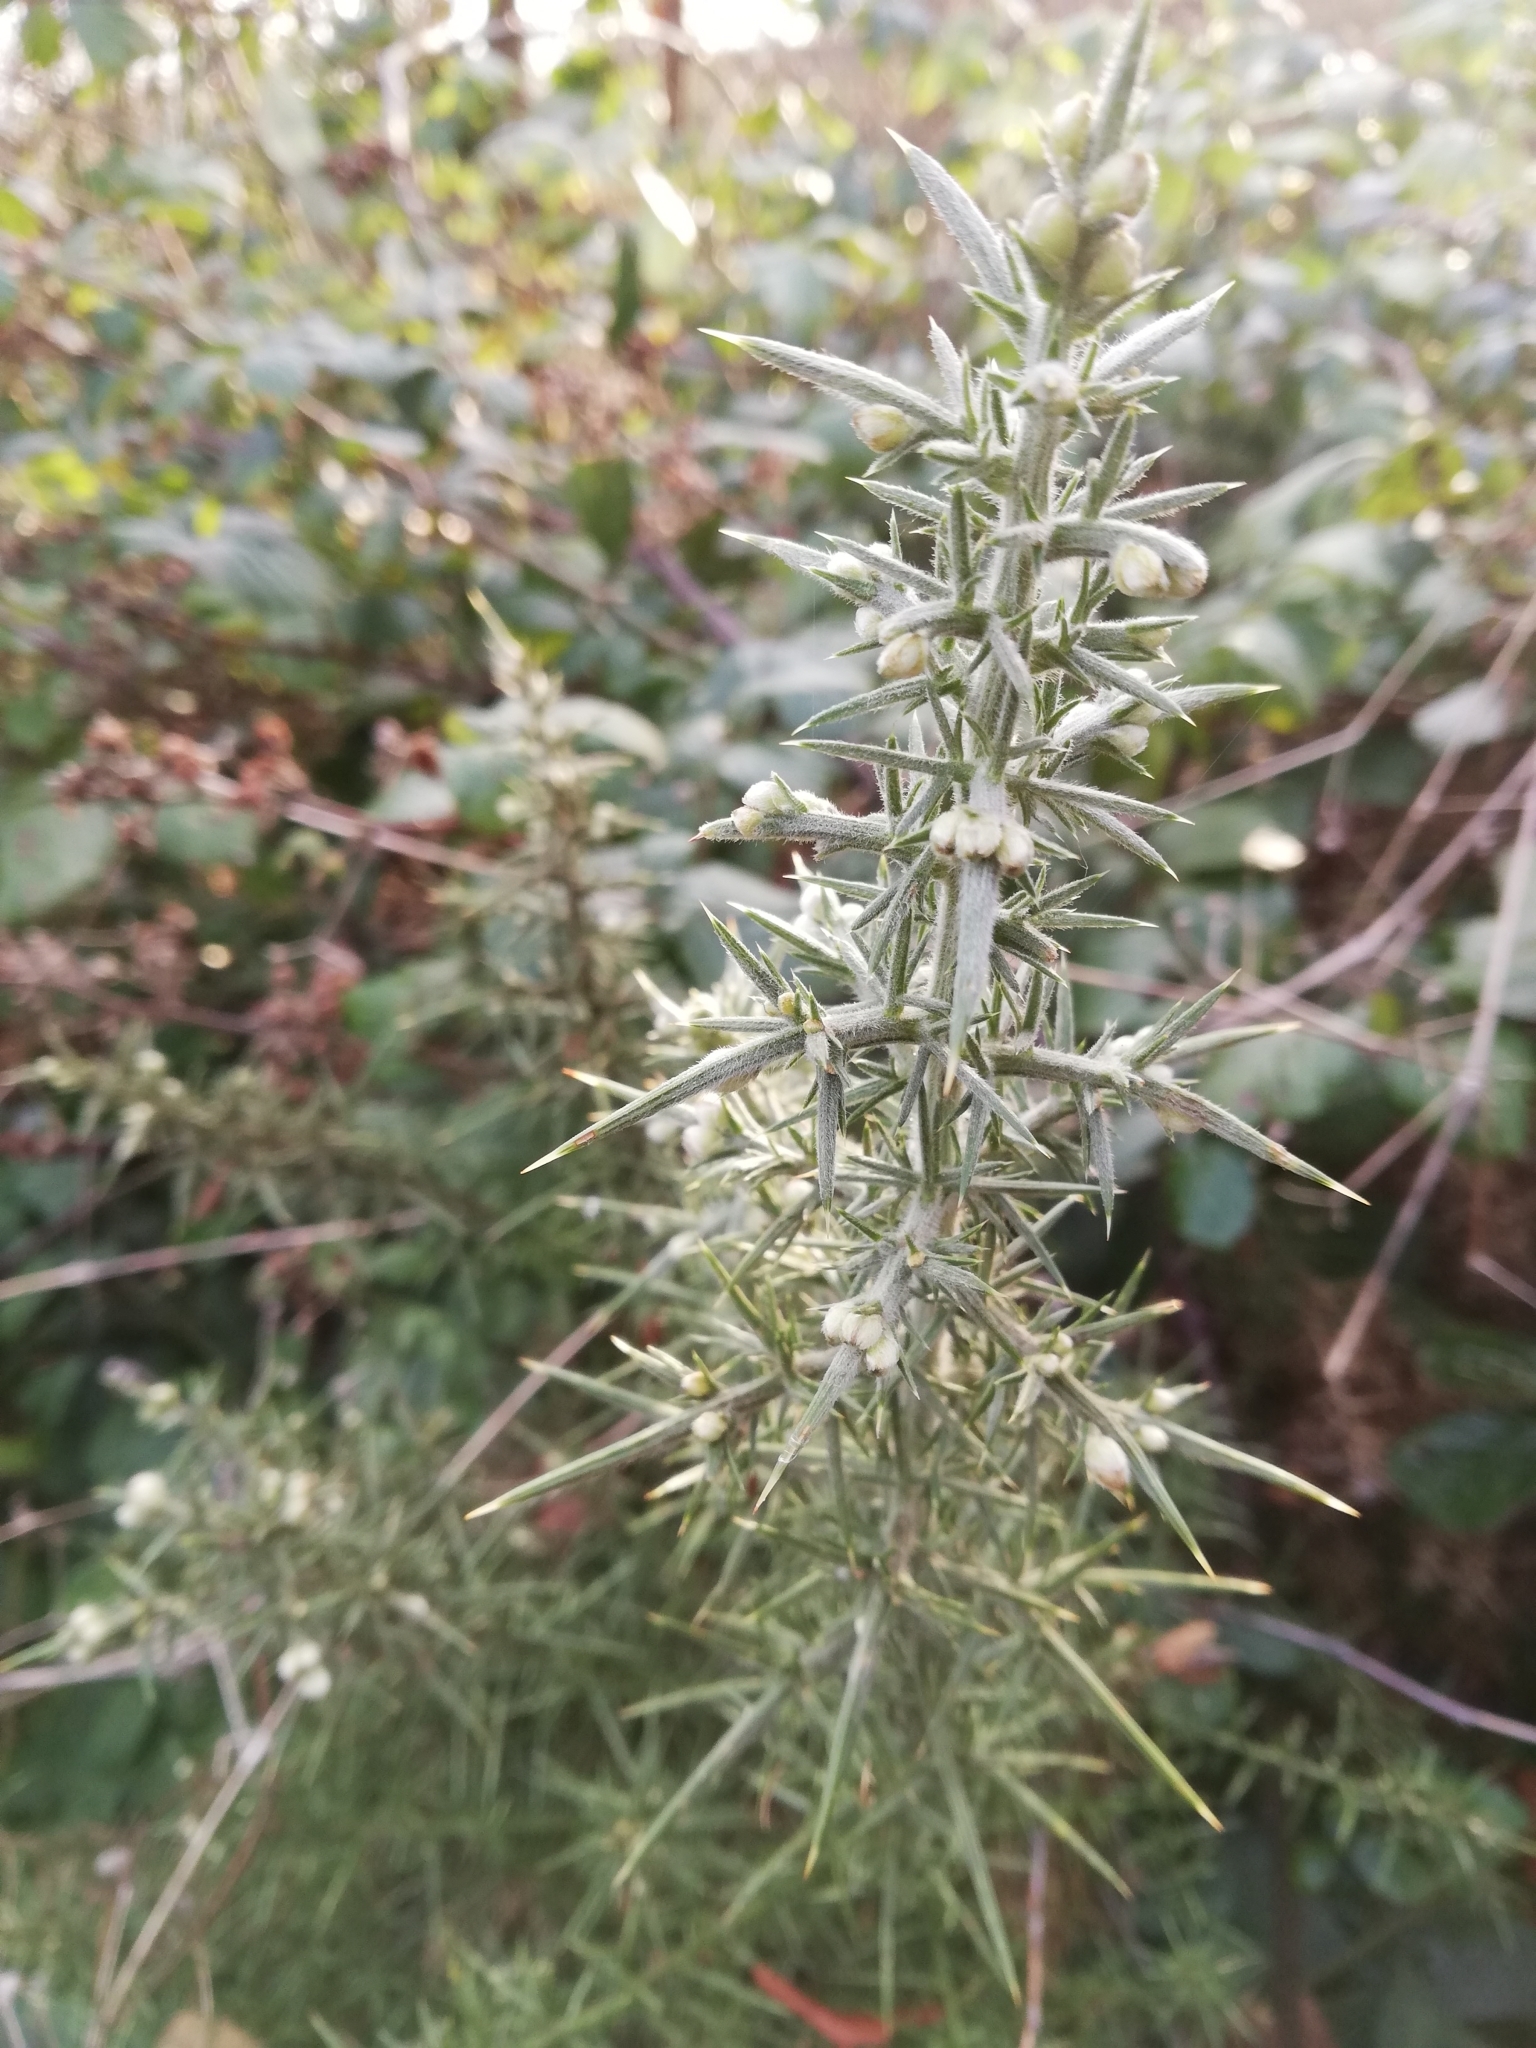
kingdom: Plantae
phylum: Tracheophyta
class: Magnoliopsida
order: Fabales
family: Fabaceae
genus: Ulex
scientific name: Ulex europaeus
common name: Common gorse
